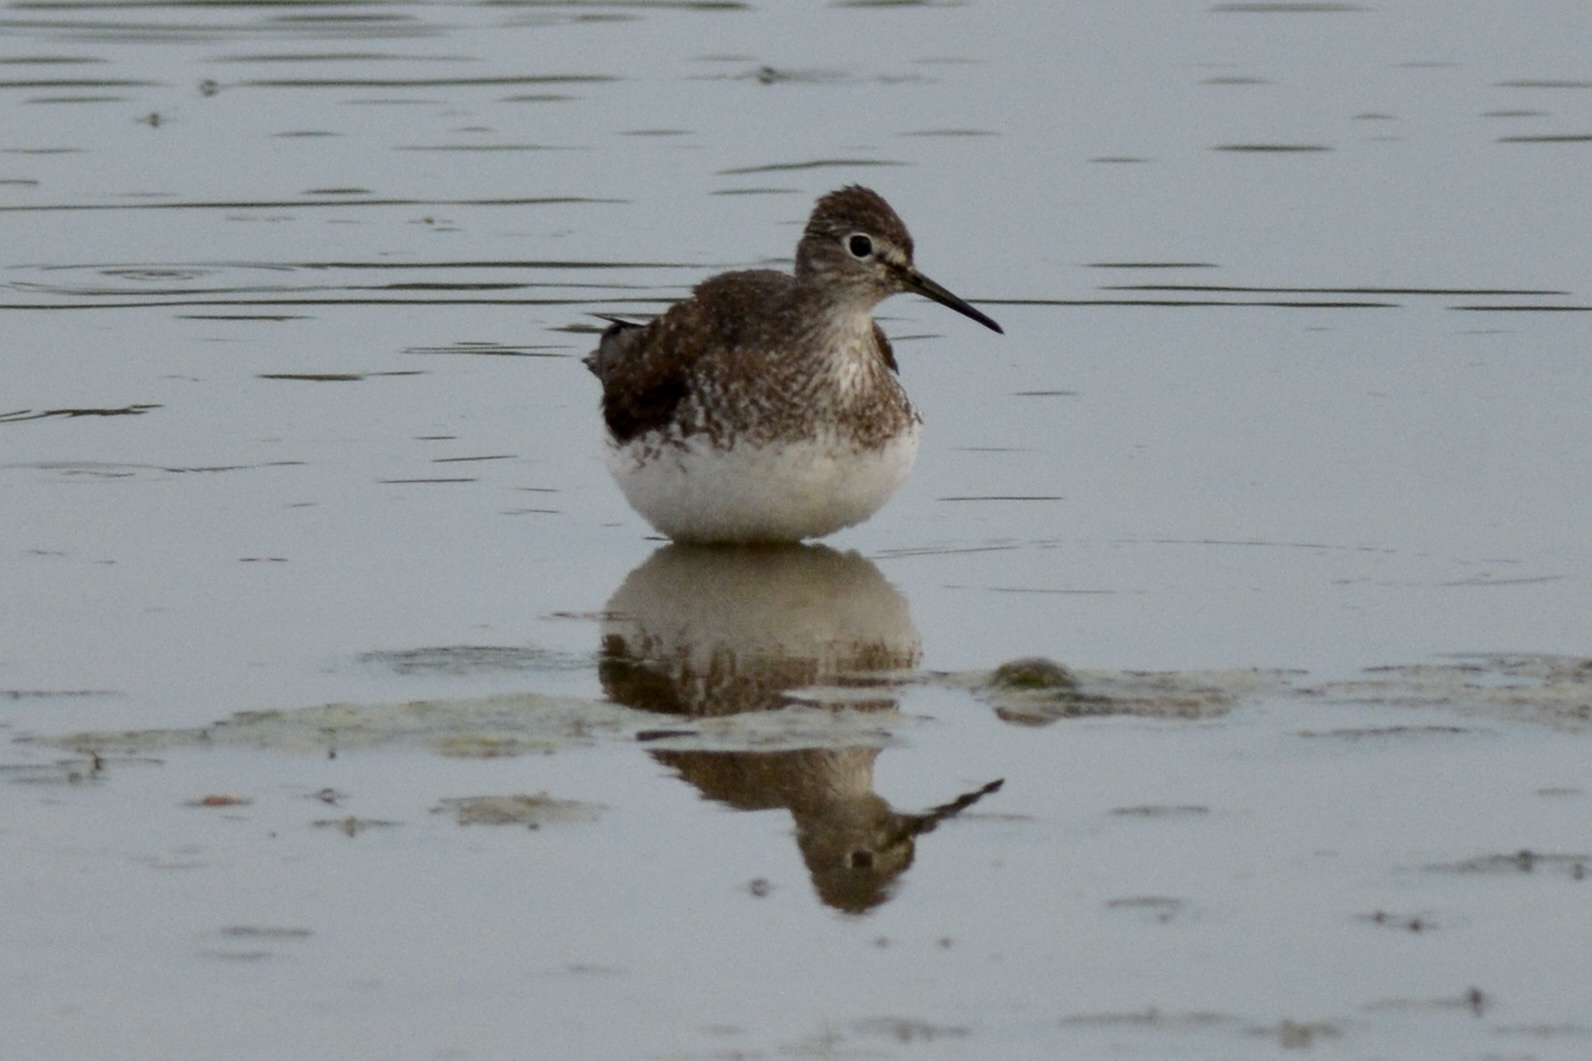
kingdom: Animalia
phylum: Chordata
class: Aves
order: Charadriiformes
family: Scolopacidae
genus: Tringa
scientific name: Tringa solitaria
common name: Solitary sandpiper
